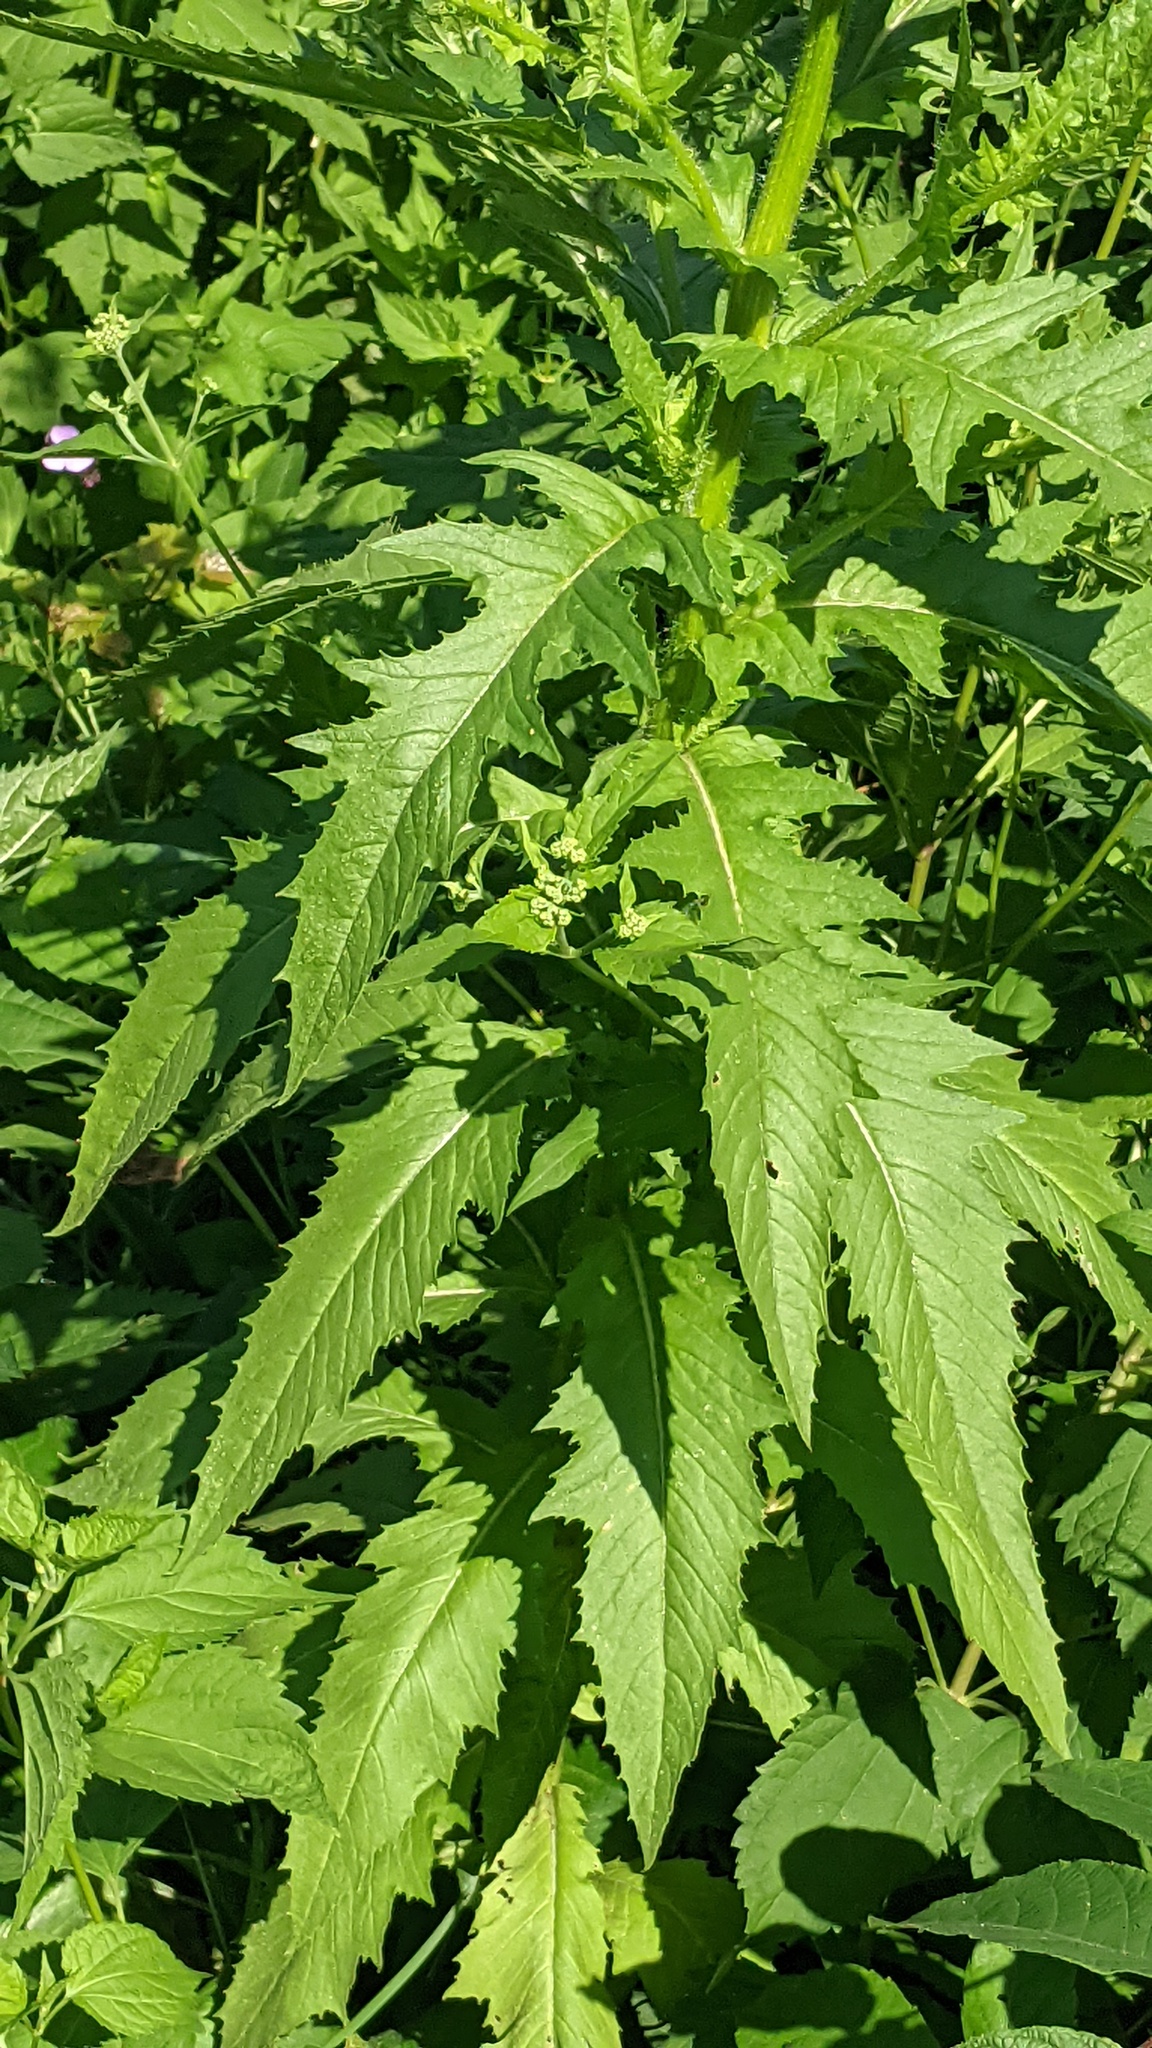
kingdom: Plantae
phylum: Tracheophyta
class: Magnoliopsida
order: Asterales
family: Asteraceae
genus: Erechtites
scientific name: Erechtites hieraciifolius
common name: American burnweed
